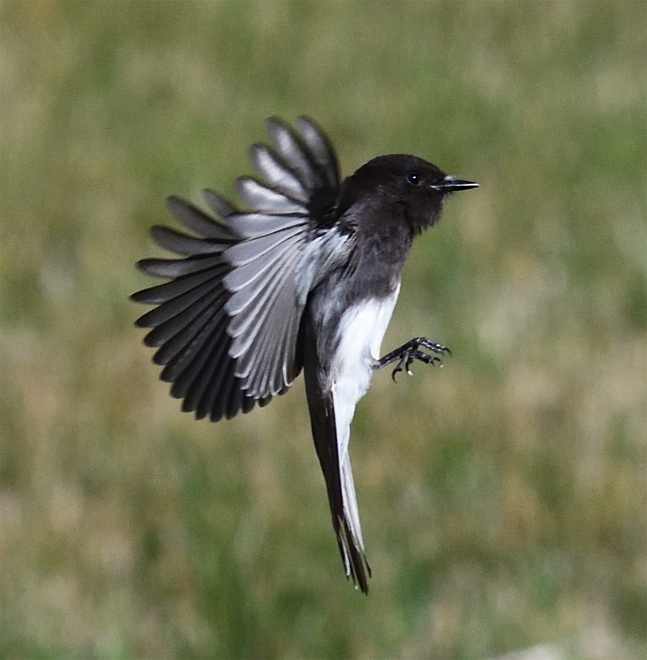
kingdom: Animalia
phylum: Chordata
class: Aves
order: Passeriformes
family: Tyrannidae
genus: Sayornis
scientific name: Sayornis nigricans
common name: Black phoebe
